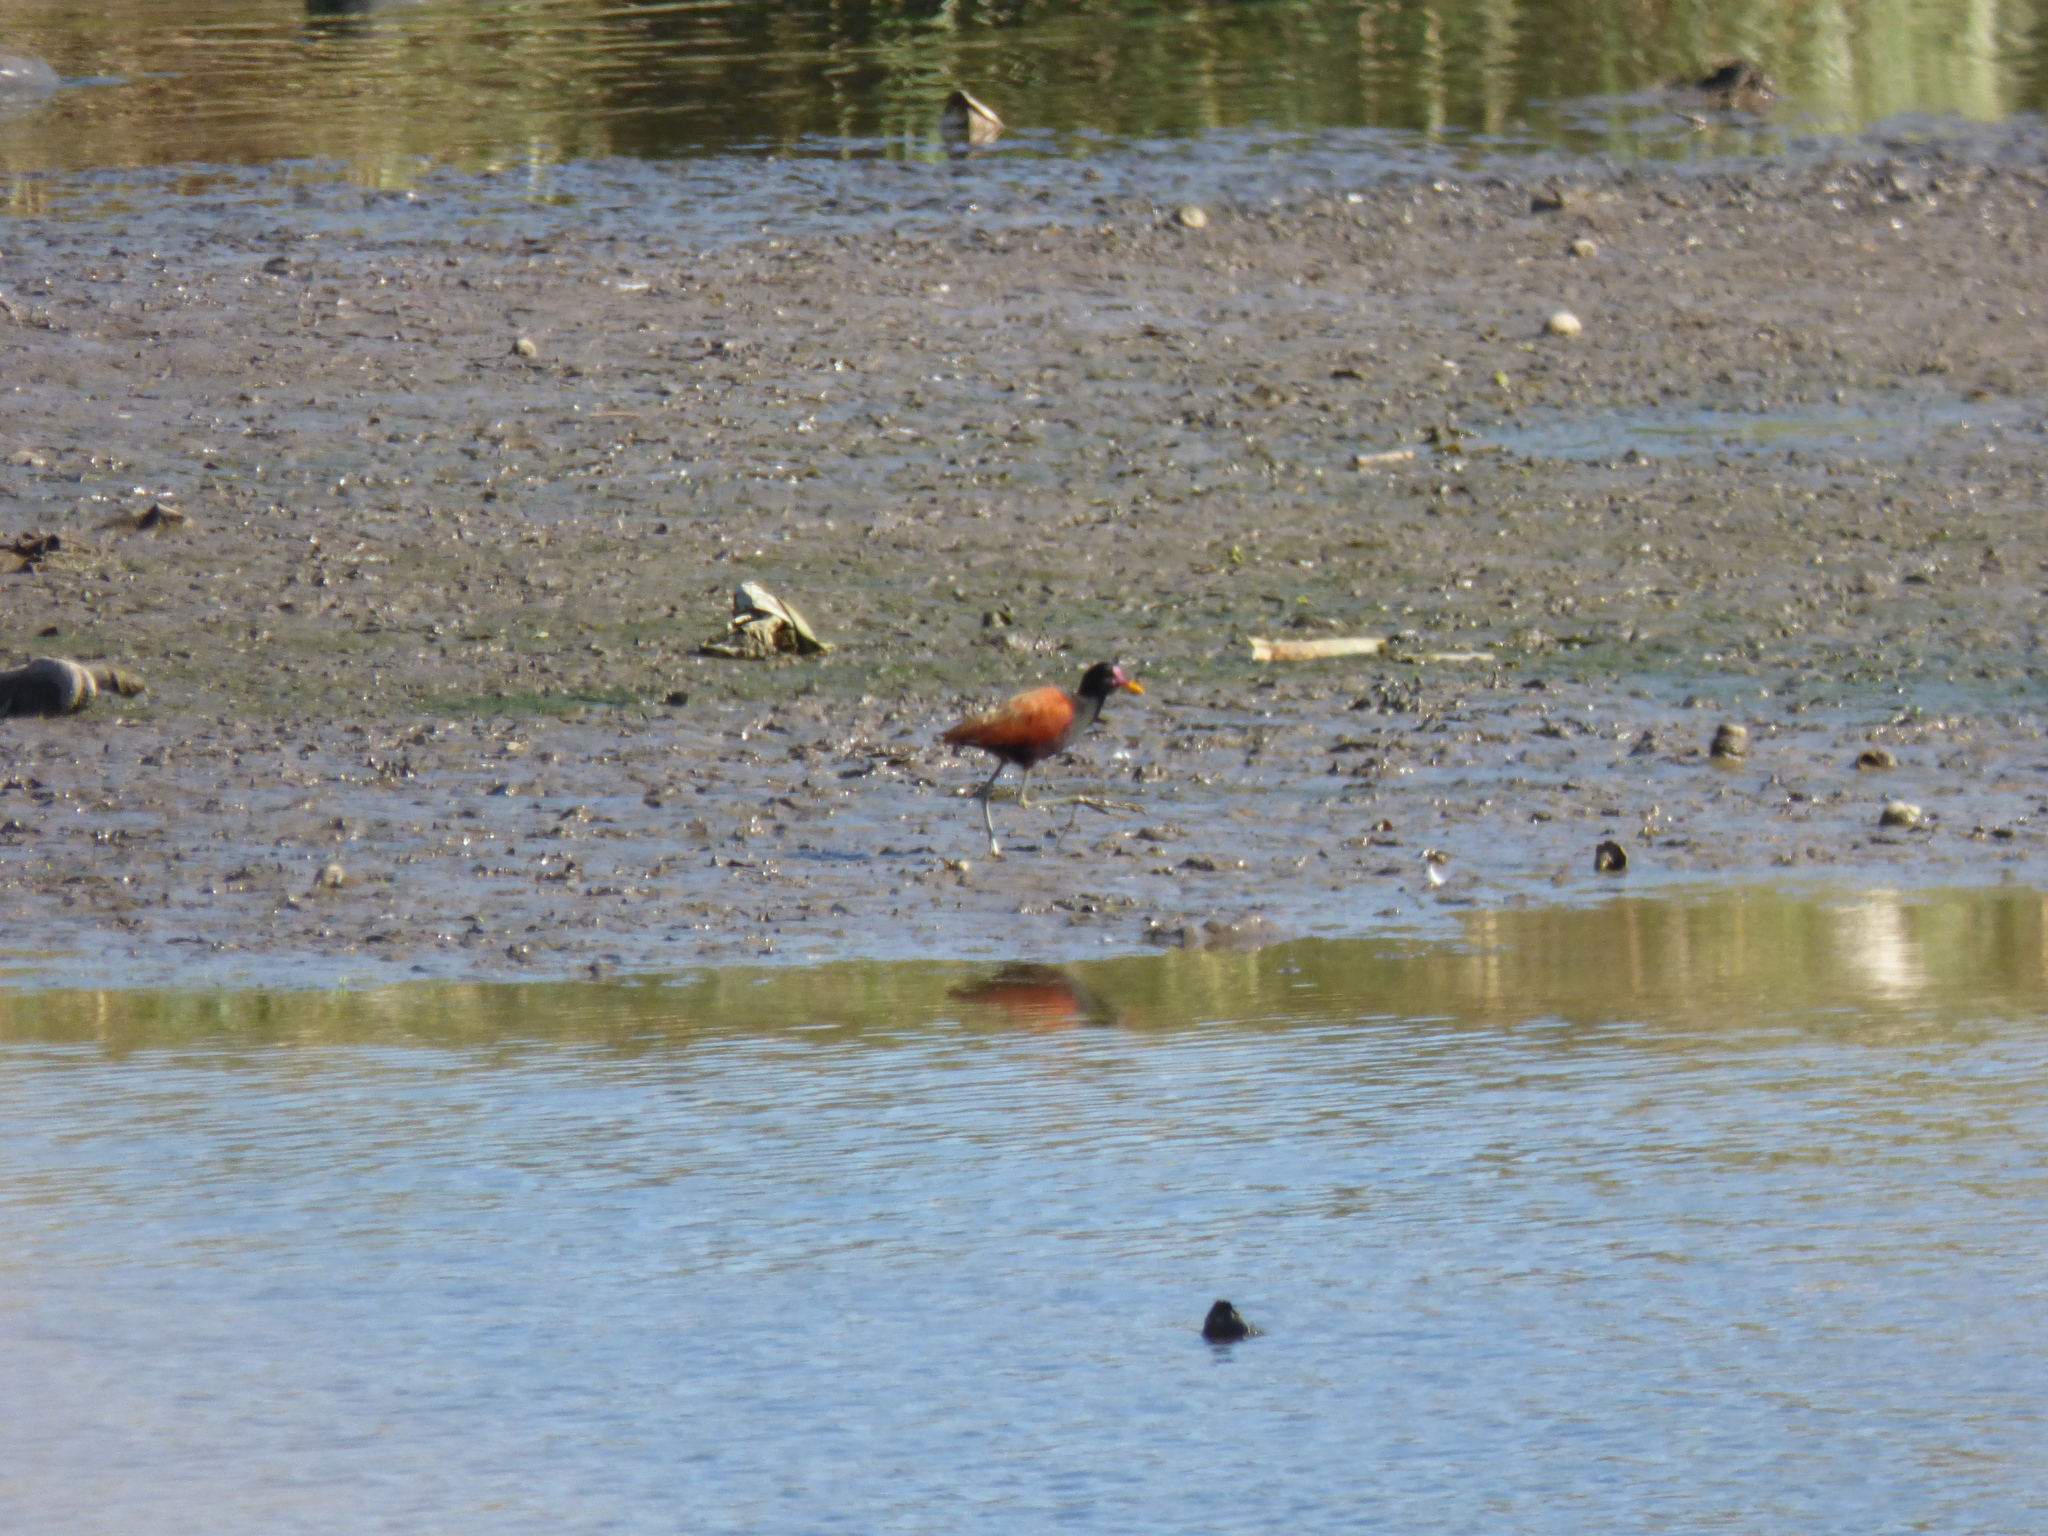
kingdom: Animalia
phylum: Chordata
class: Aves
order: Charadriiformes
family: Jacanidae
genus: Jacana
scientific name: Jacana jacana
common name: Wattled jacana
